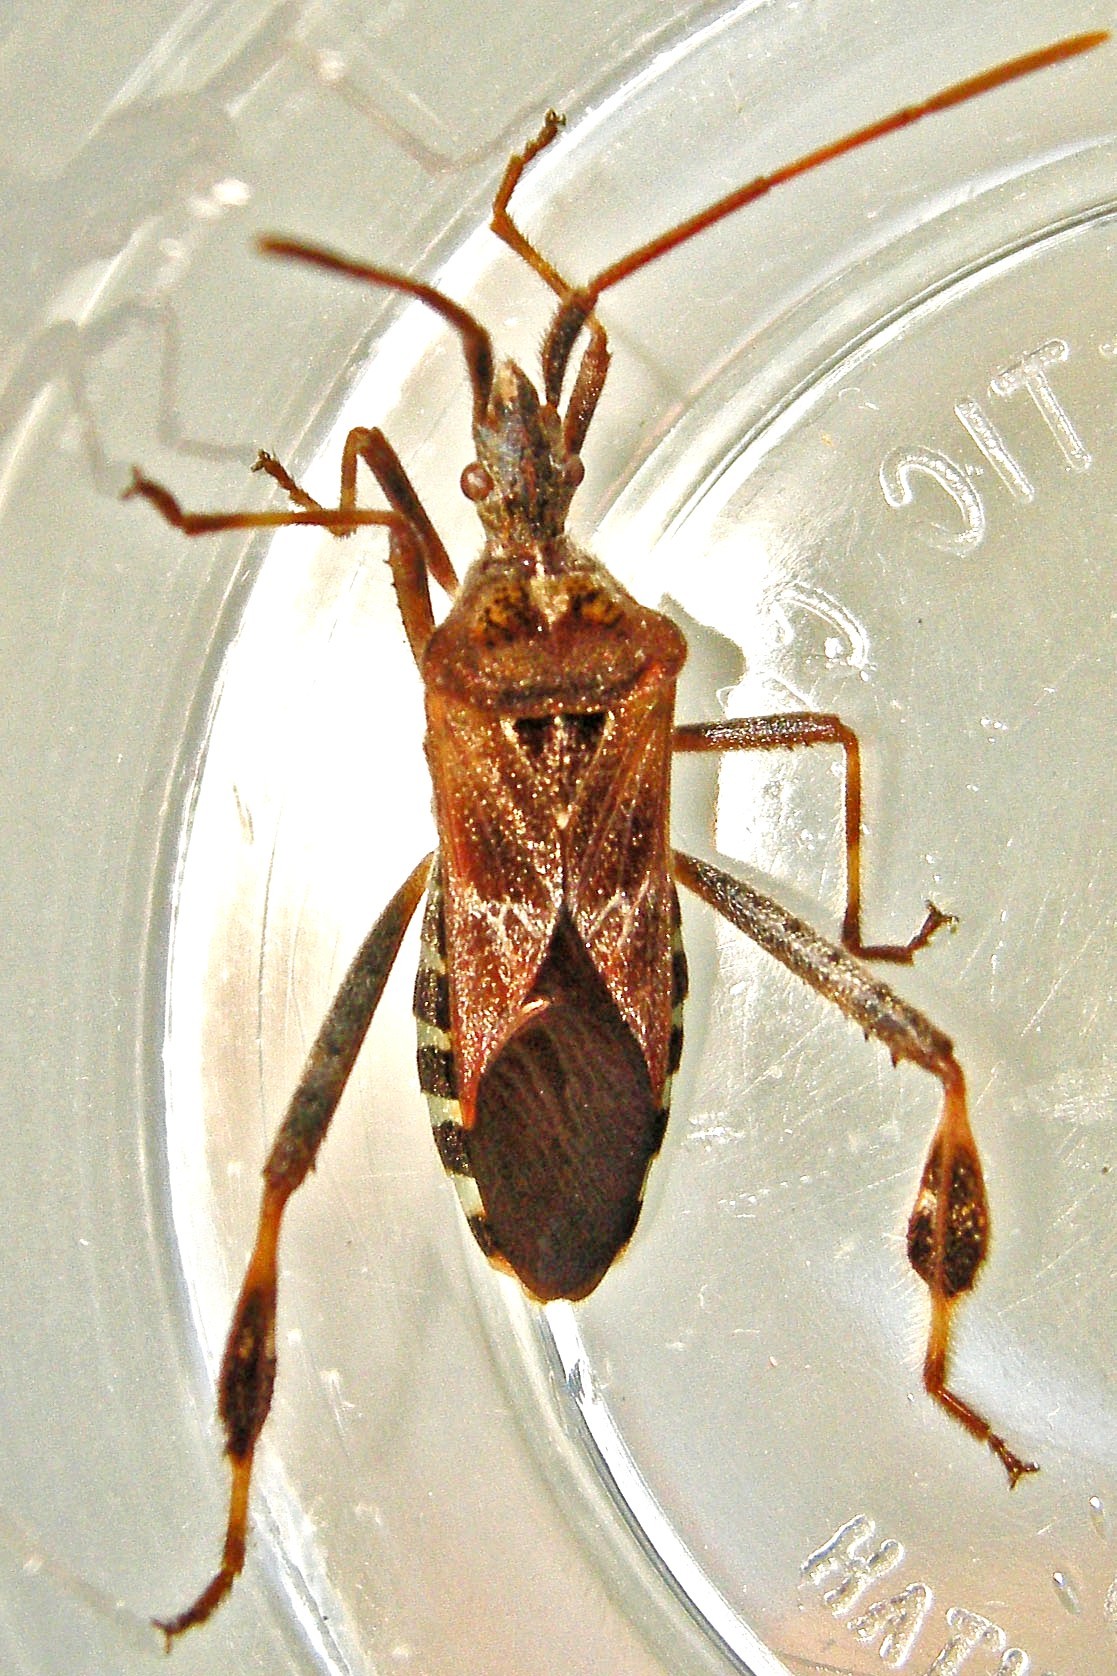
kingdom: Animalia
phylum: Arthropoda
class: Insecta
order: Hemiptera
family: Coreidae
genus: Leptoglossus
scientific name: Leptoglossus occidentalis
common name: Western conifer-seed bug
